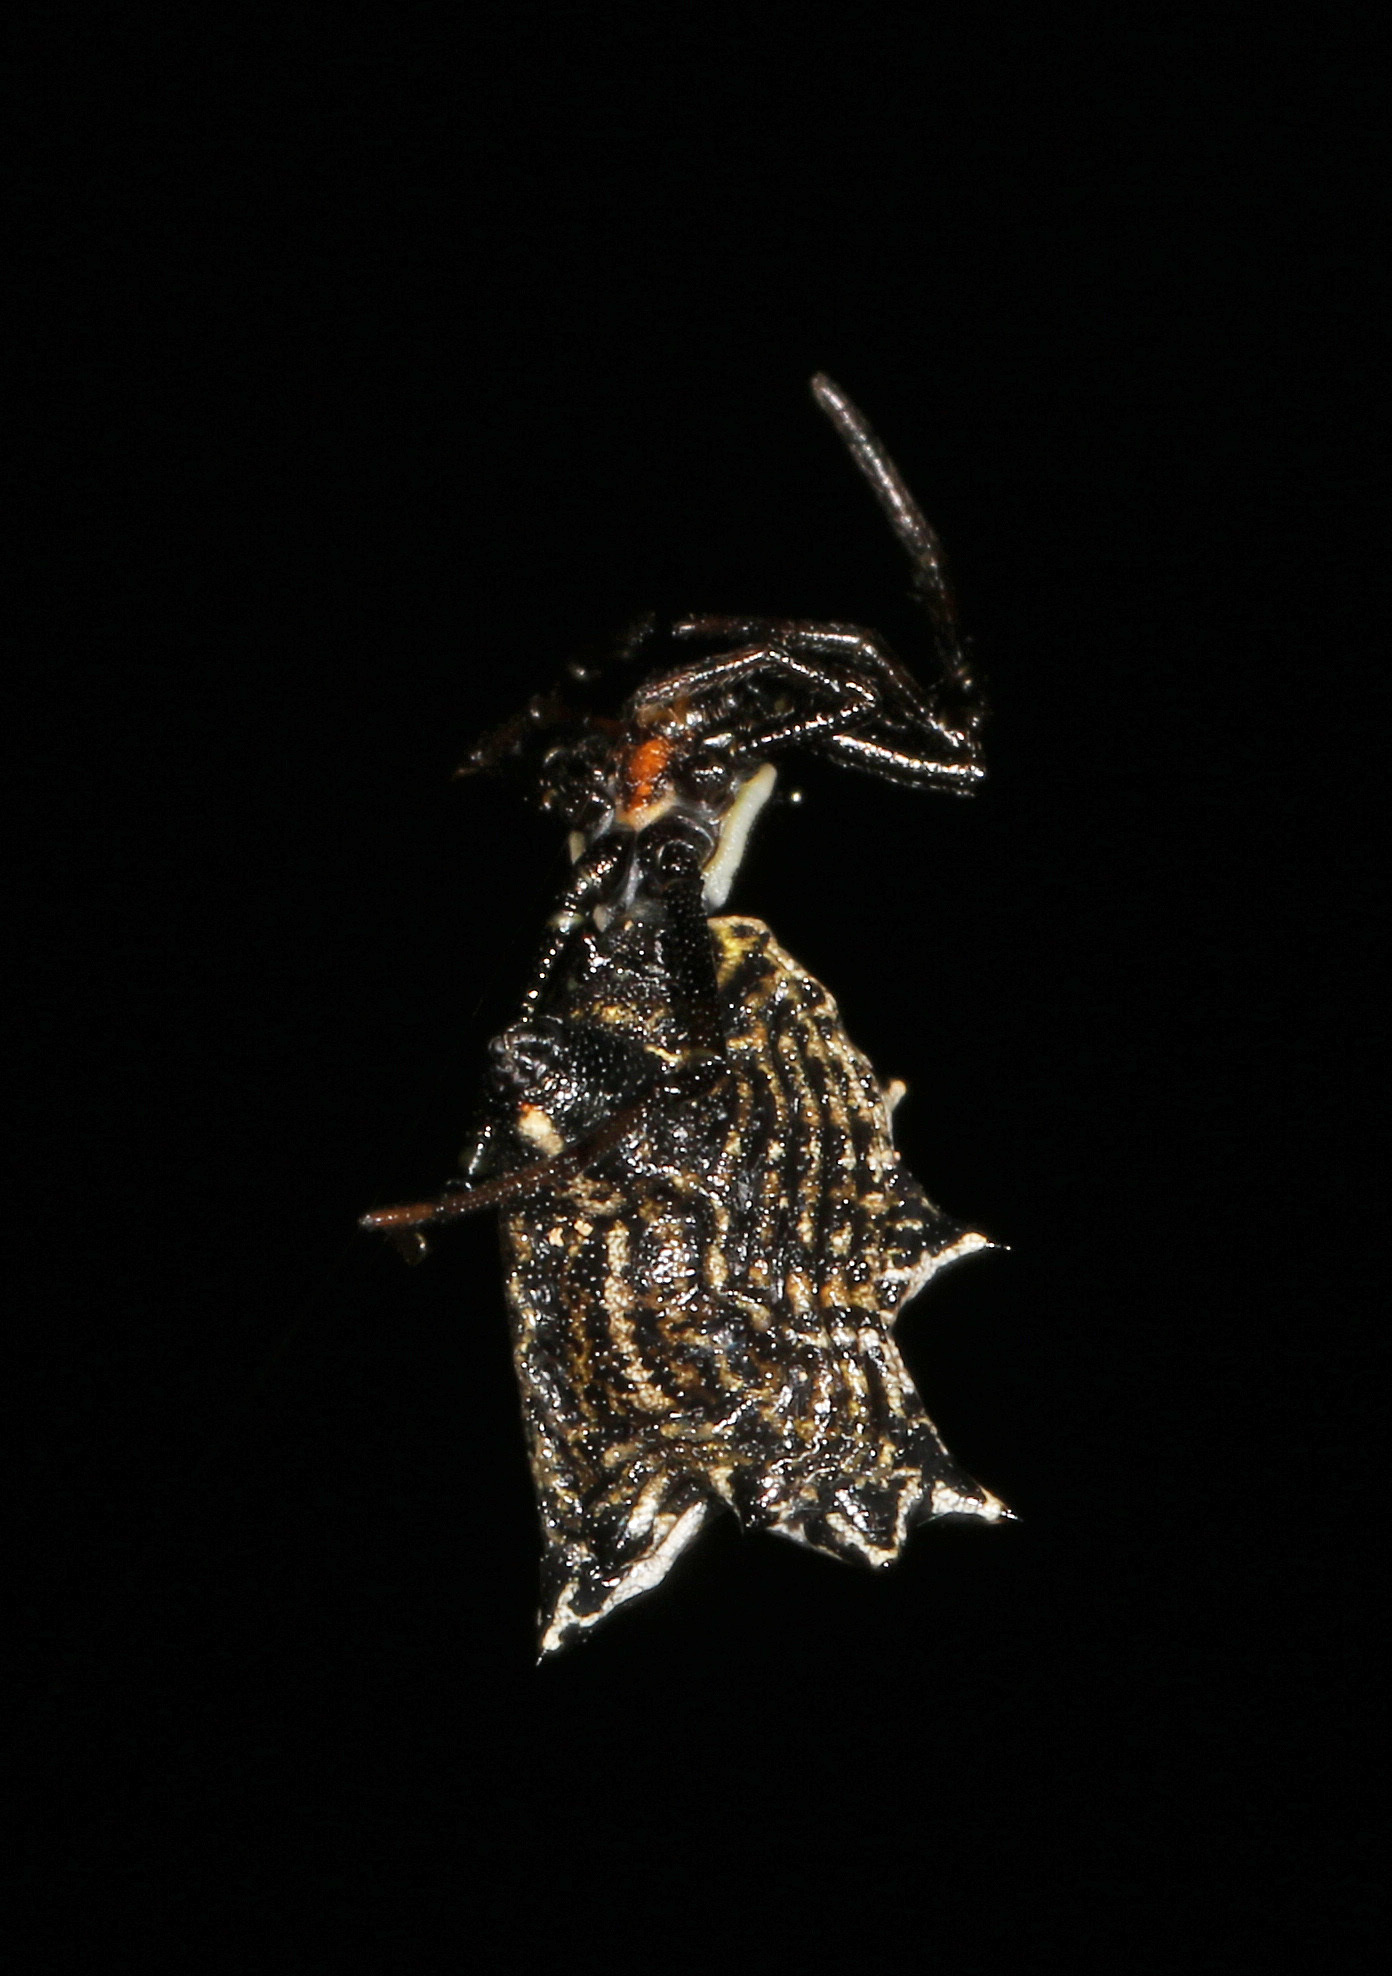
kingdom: Animalia
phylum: Arthropoda
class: Arachnida
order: Araneae
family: Araneidae
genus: Micrathena
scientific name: Micrathena gracilis
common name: Orb weavers
